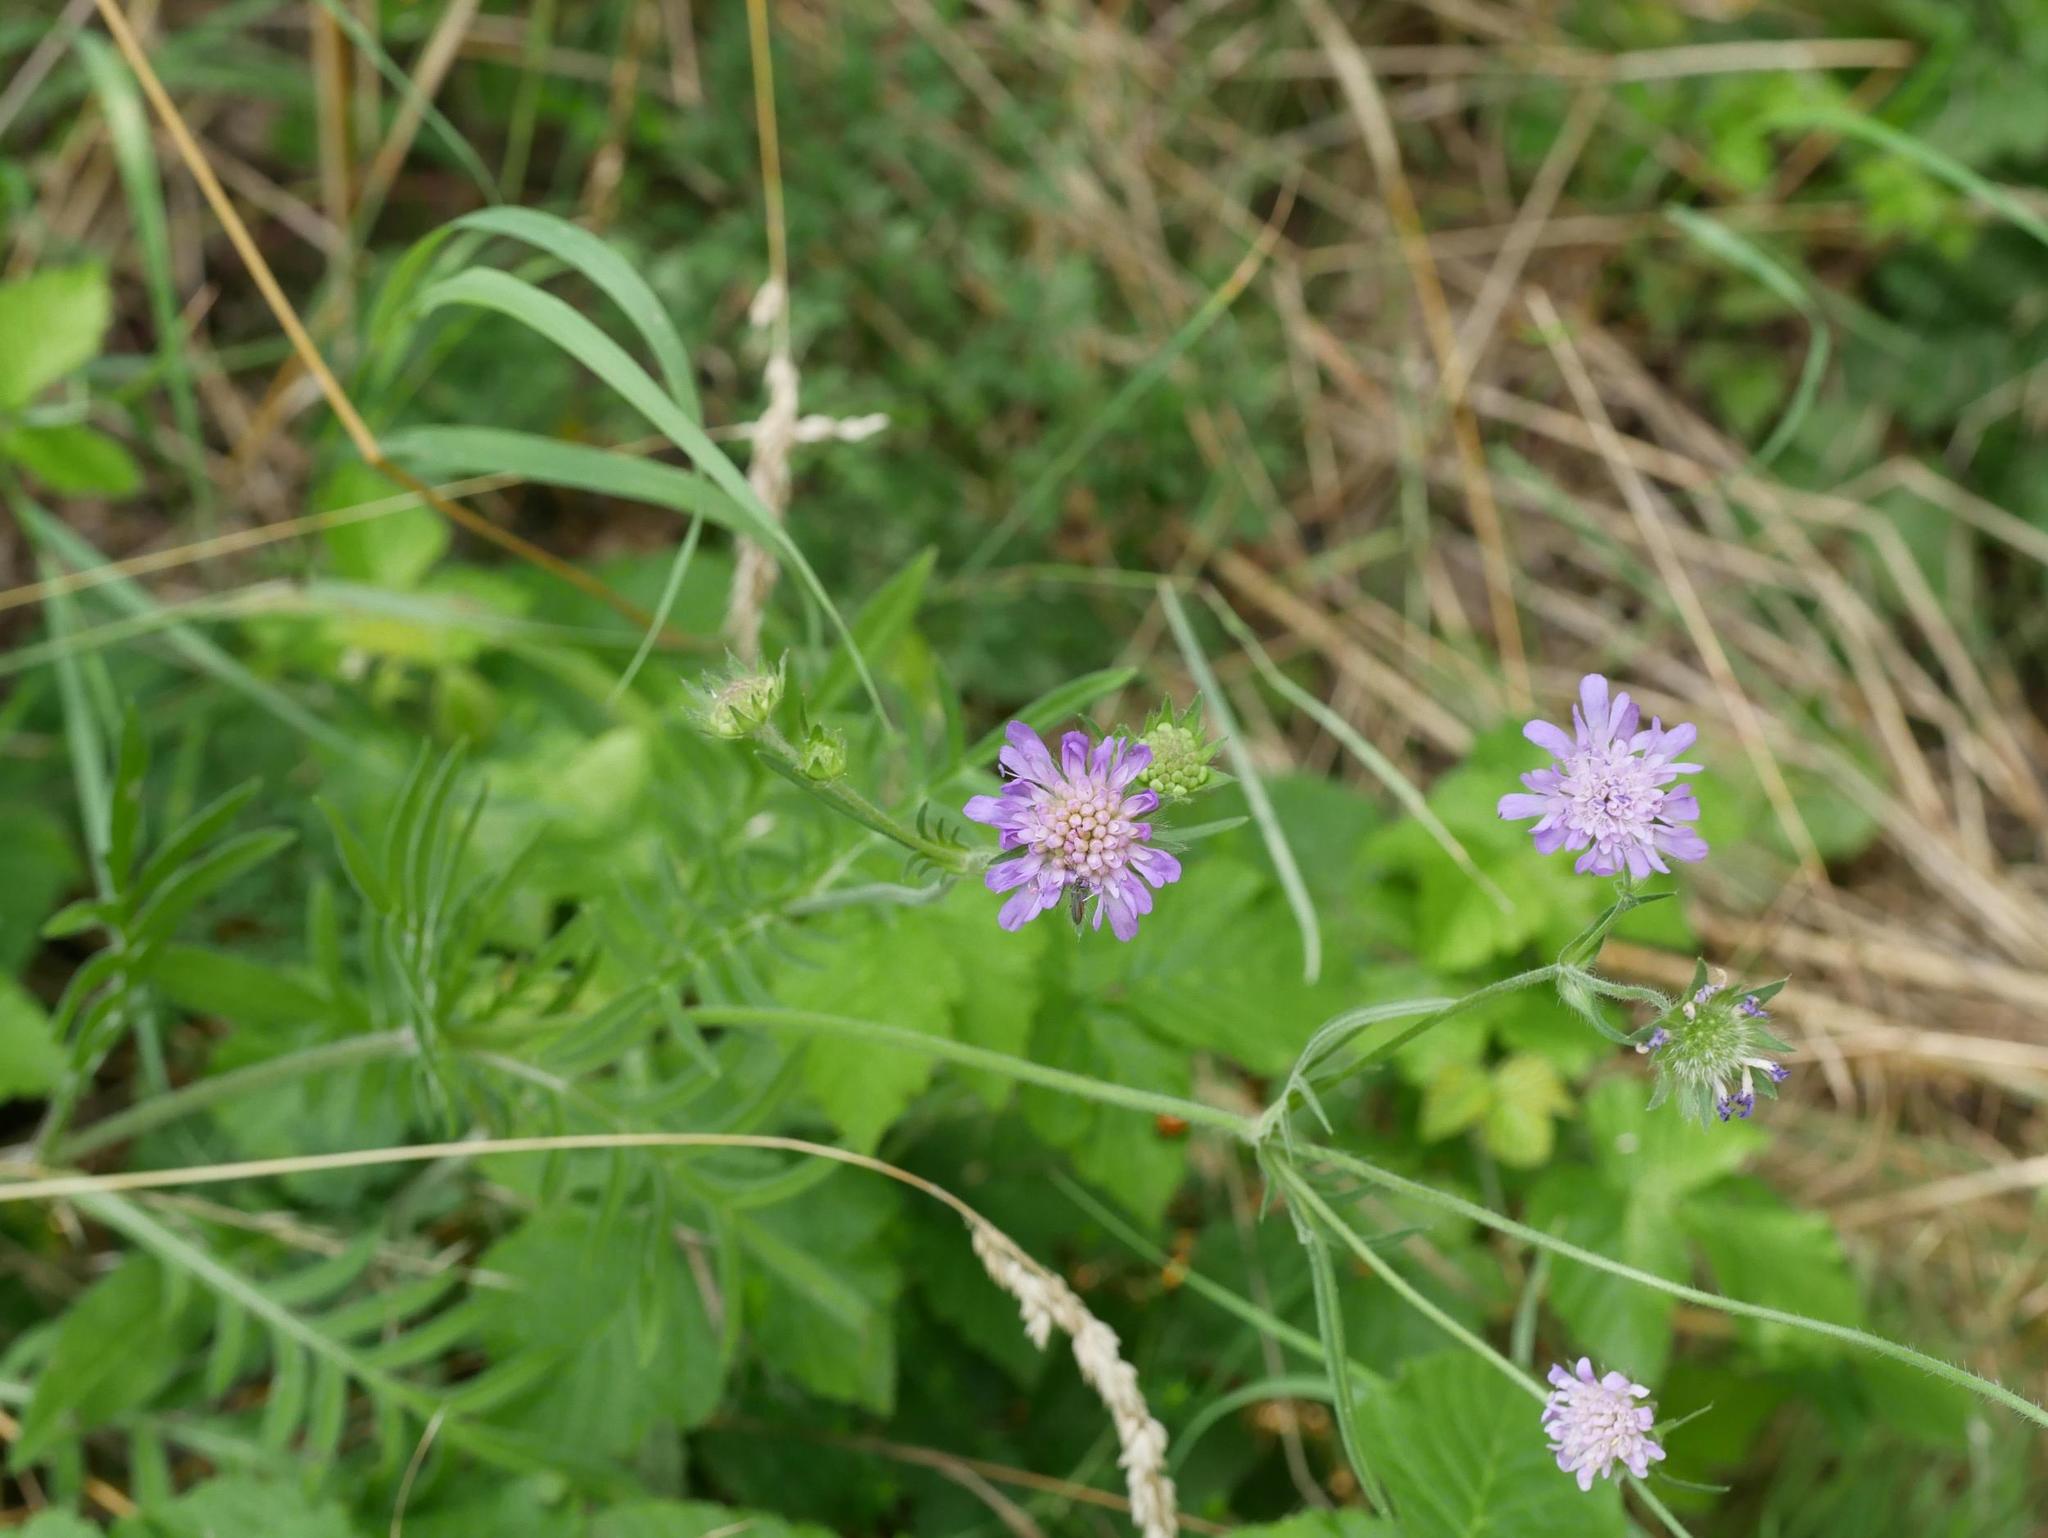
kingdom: Plantae
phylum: Tracheophyta
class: Magnoliopsida
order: Dipsacales
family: Caprifoliaceae
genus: Knautia
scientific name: Knautia arvensis
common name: Field scabiosa
